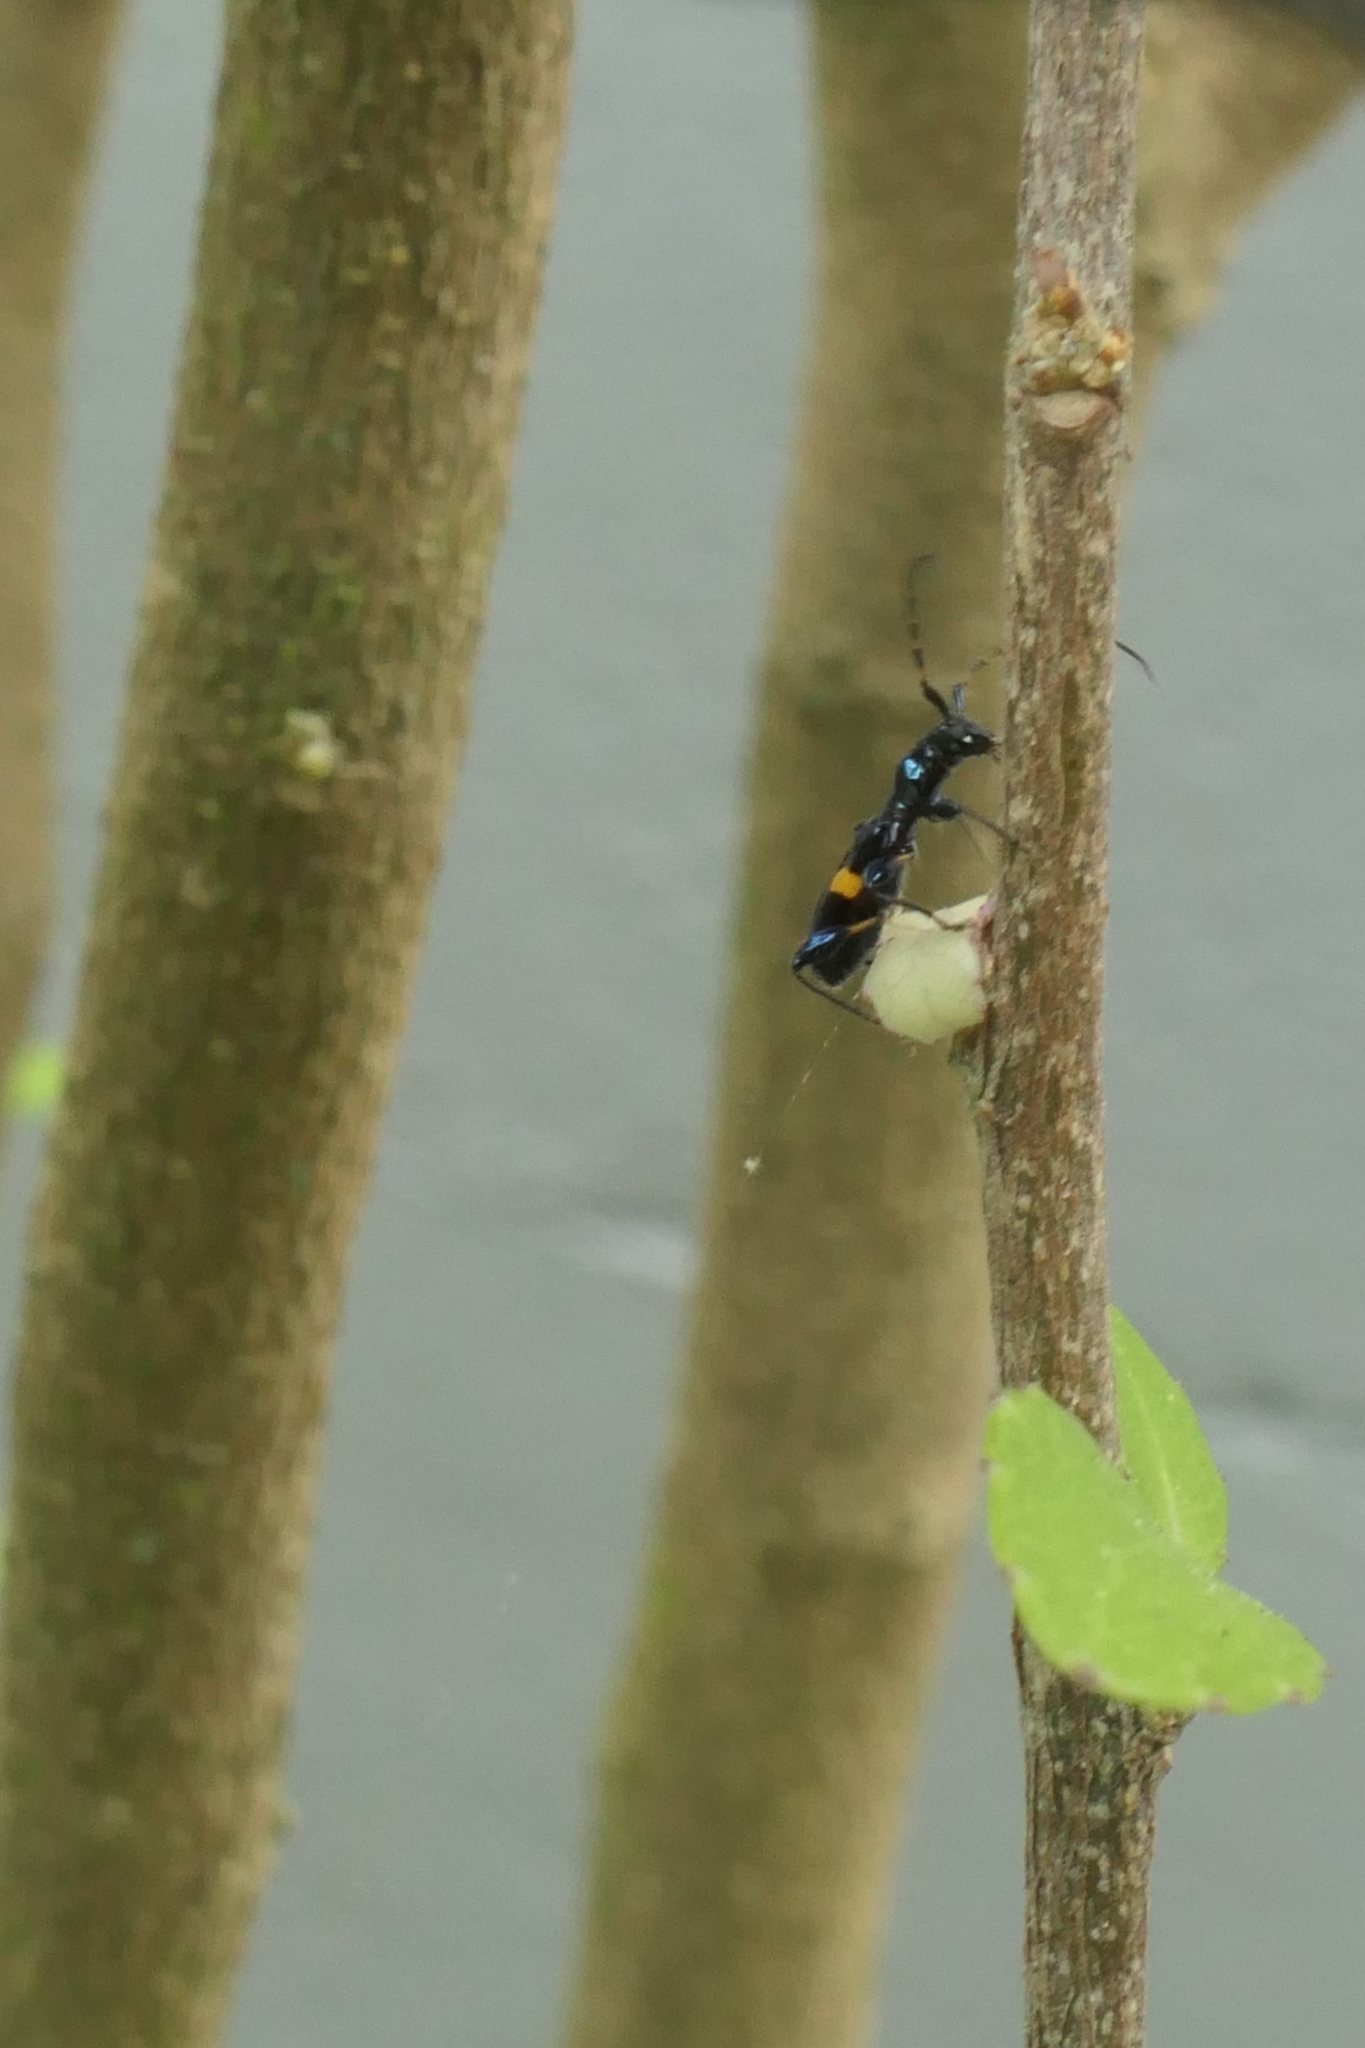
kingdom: Animalia
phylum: Arthropoda
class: Insecta
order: Coleoptera
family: Cerambycidae
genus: Zorion
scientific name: Zorion guttigerum
